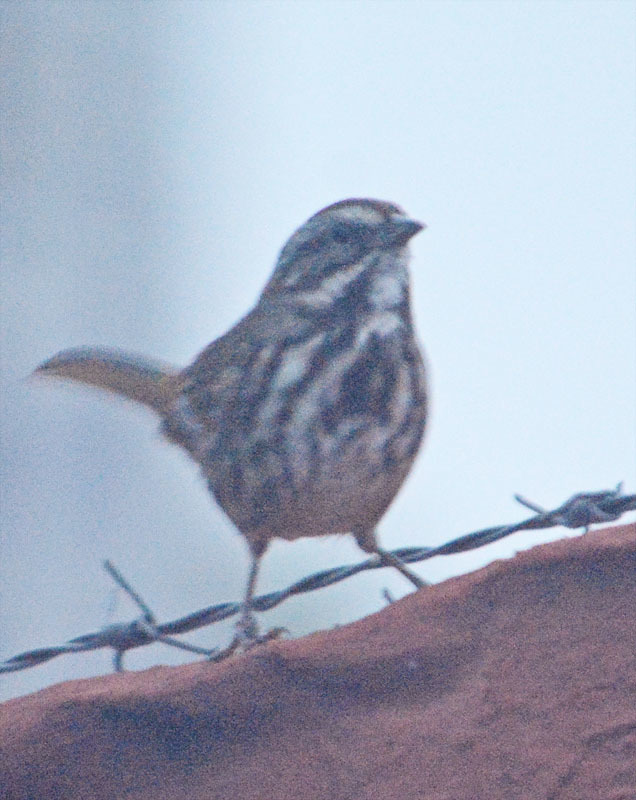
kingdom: Animalia
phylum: Chordata
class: Aves
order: Passeriformes
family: Passerellidae
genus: Melospiza
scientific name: Melospiza melodia
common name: Song sparrow
